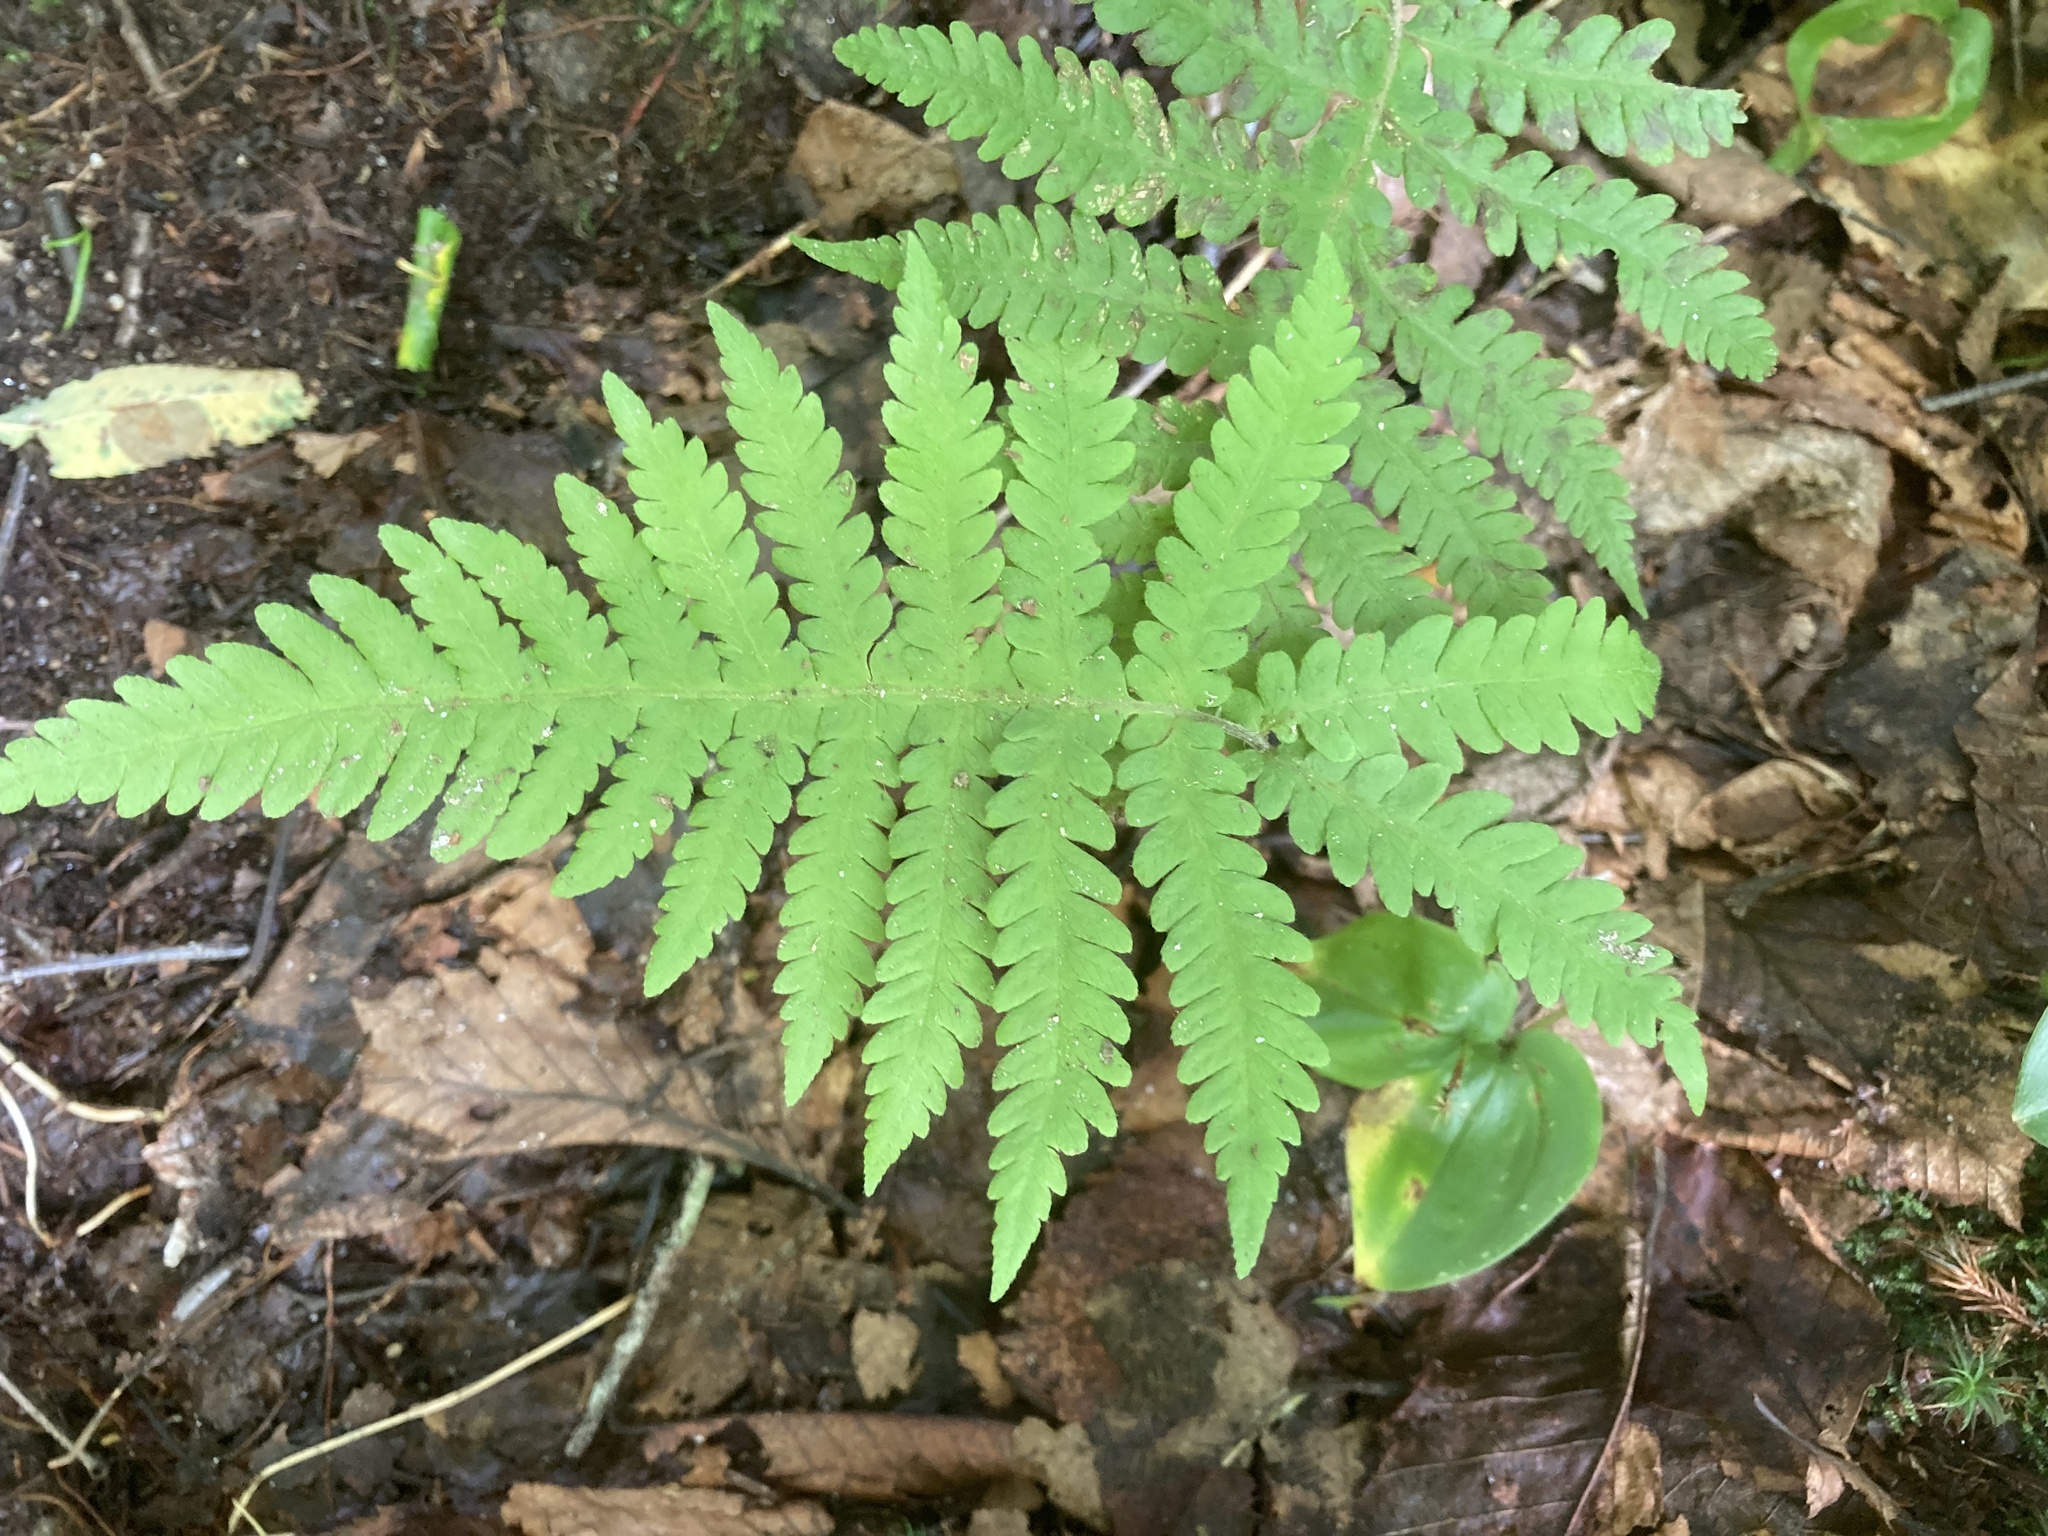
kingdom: Plantae
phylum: Tracheophyta
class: Polypodiopsida
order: Polypodiales
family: Thelypteridaceae
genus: Phegopteris
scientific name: Phegopteris connectilis
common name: Beech fern
